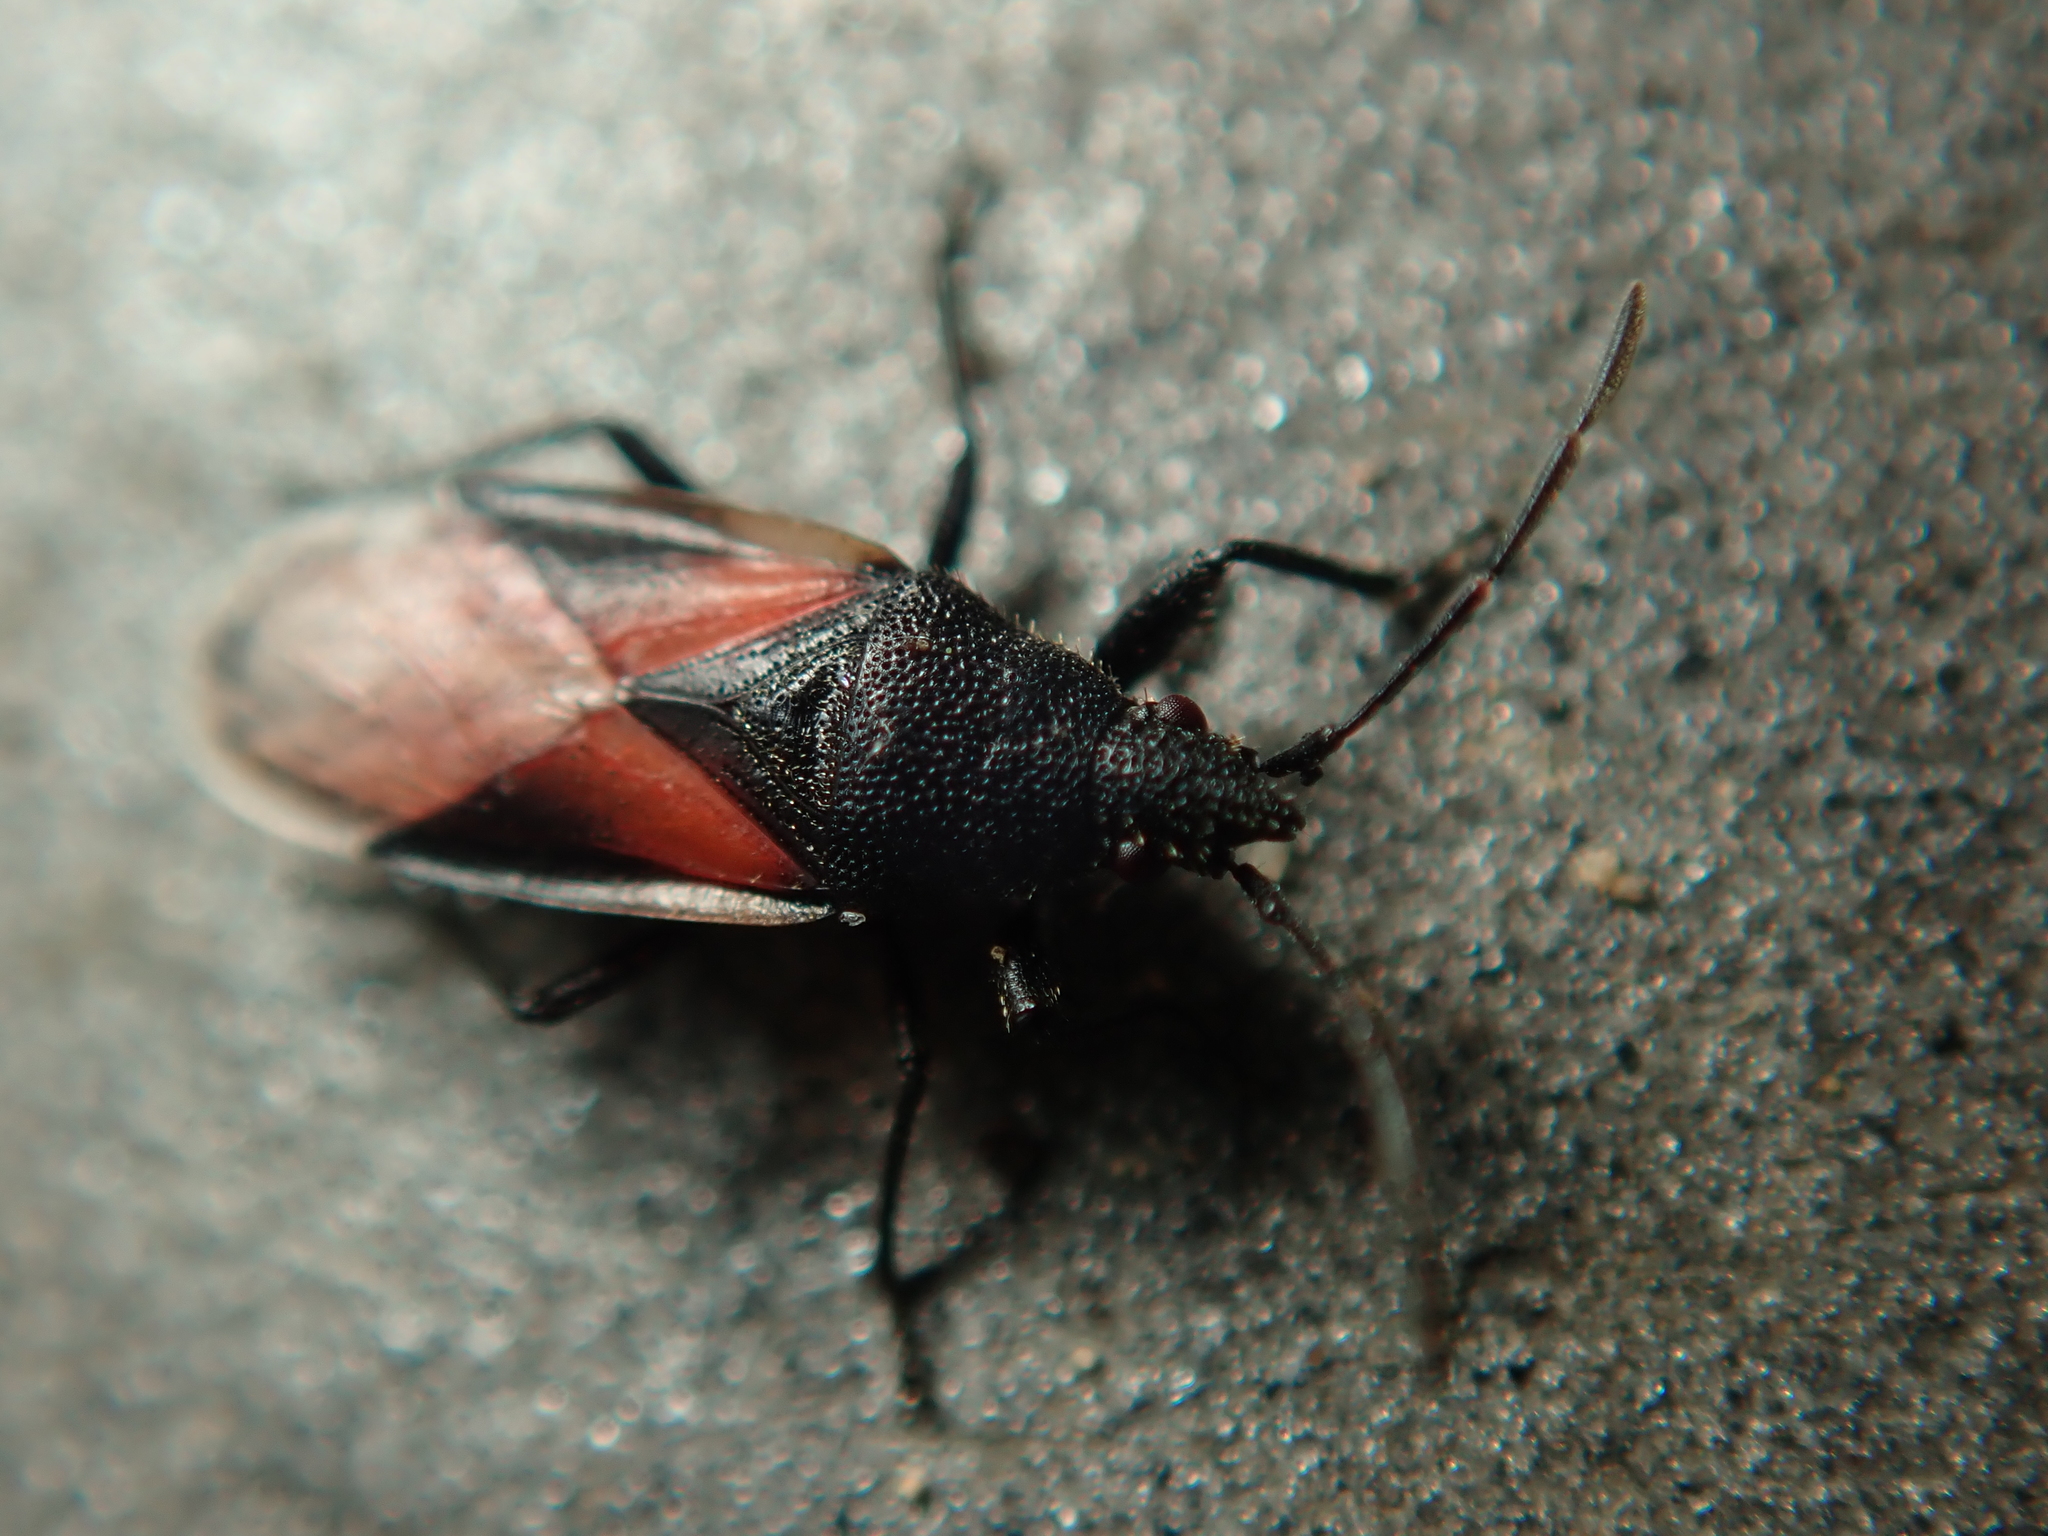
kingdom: Animalia
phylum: Arthropoda
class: Insecta
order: Hemiptera
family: Oxycarenidae
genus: Oxycarenus
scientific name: Oxycarenus lavaterae
